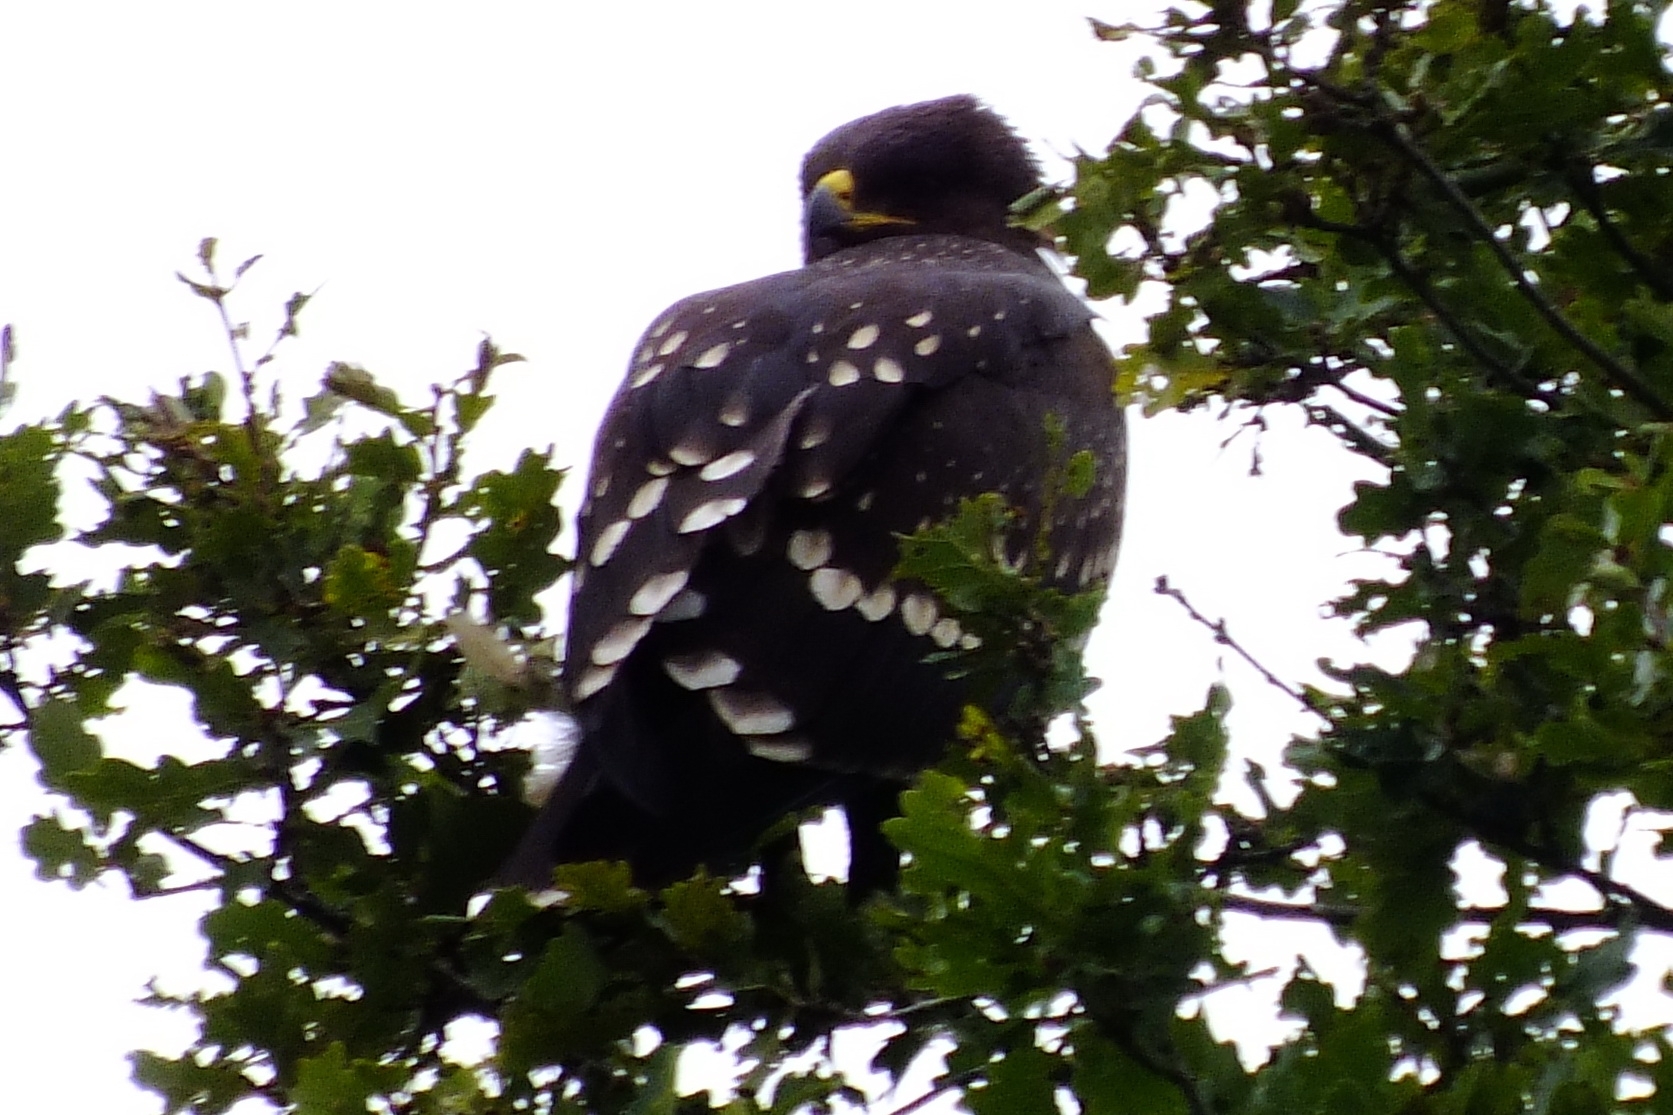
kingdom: Animalia
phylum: Chordata
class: Aves
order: Accipitriformes
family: Accipitridae
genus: Aquila
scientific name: Aquila clanga
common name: Greater spotted eagle
